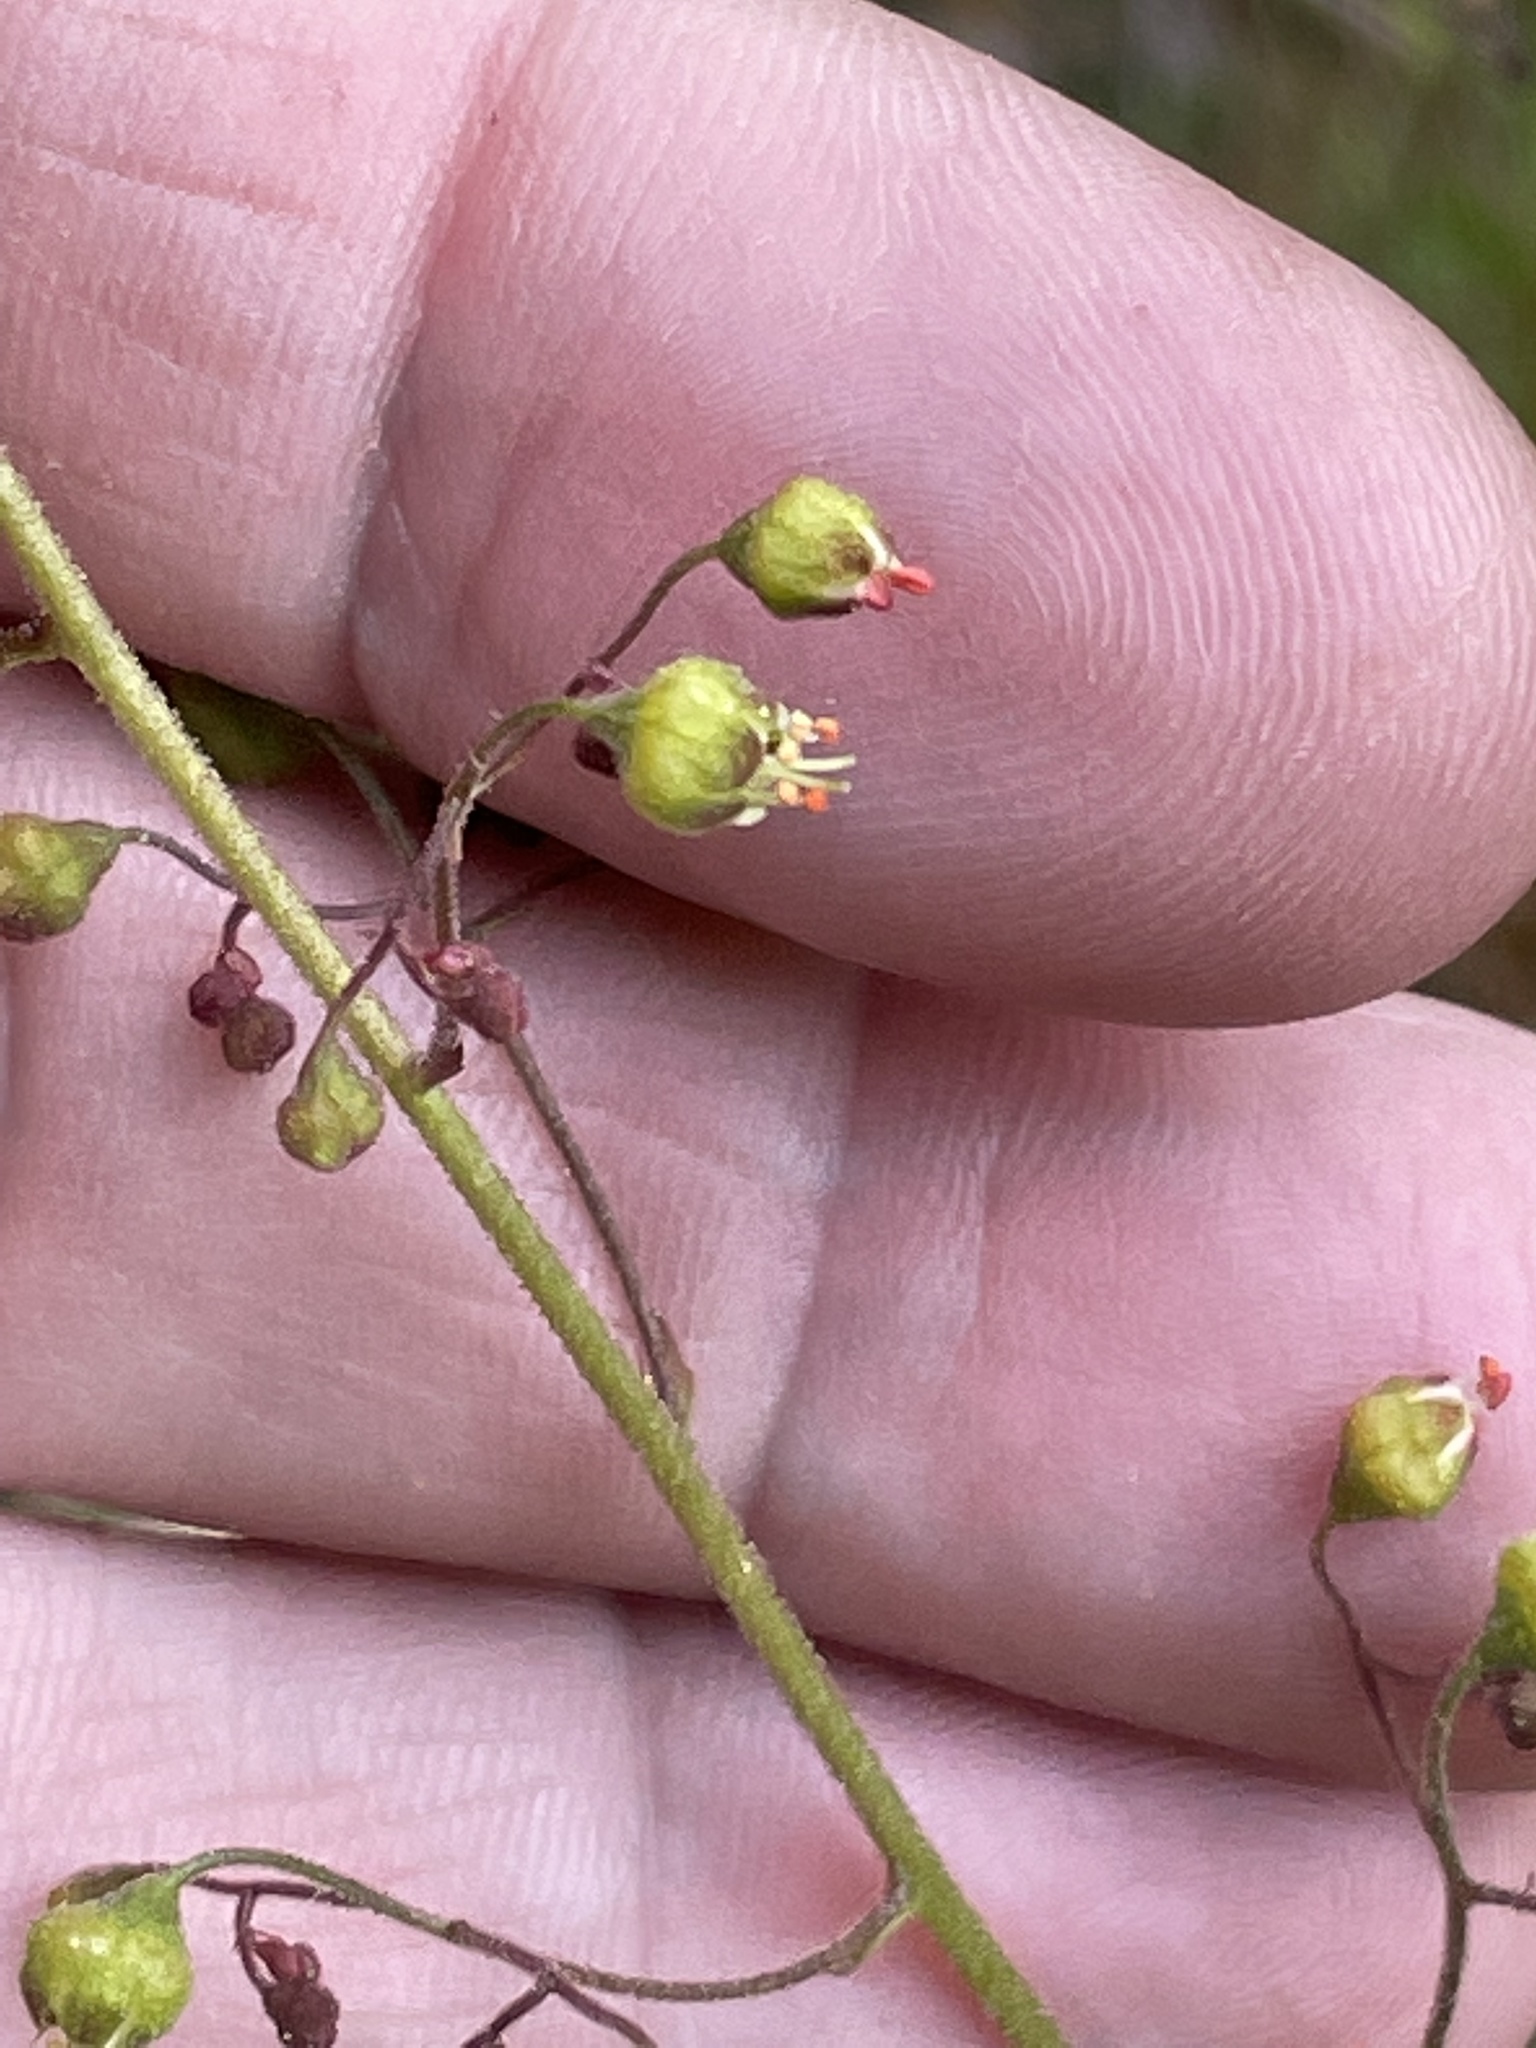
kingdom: Plantae
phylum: Tracheophyta
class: Magnoliopsida
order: Saxifragales
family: Saxifragaceae
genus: Heuchera
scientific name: Heuchera caroliniana
